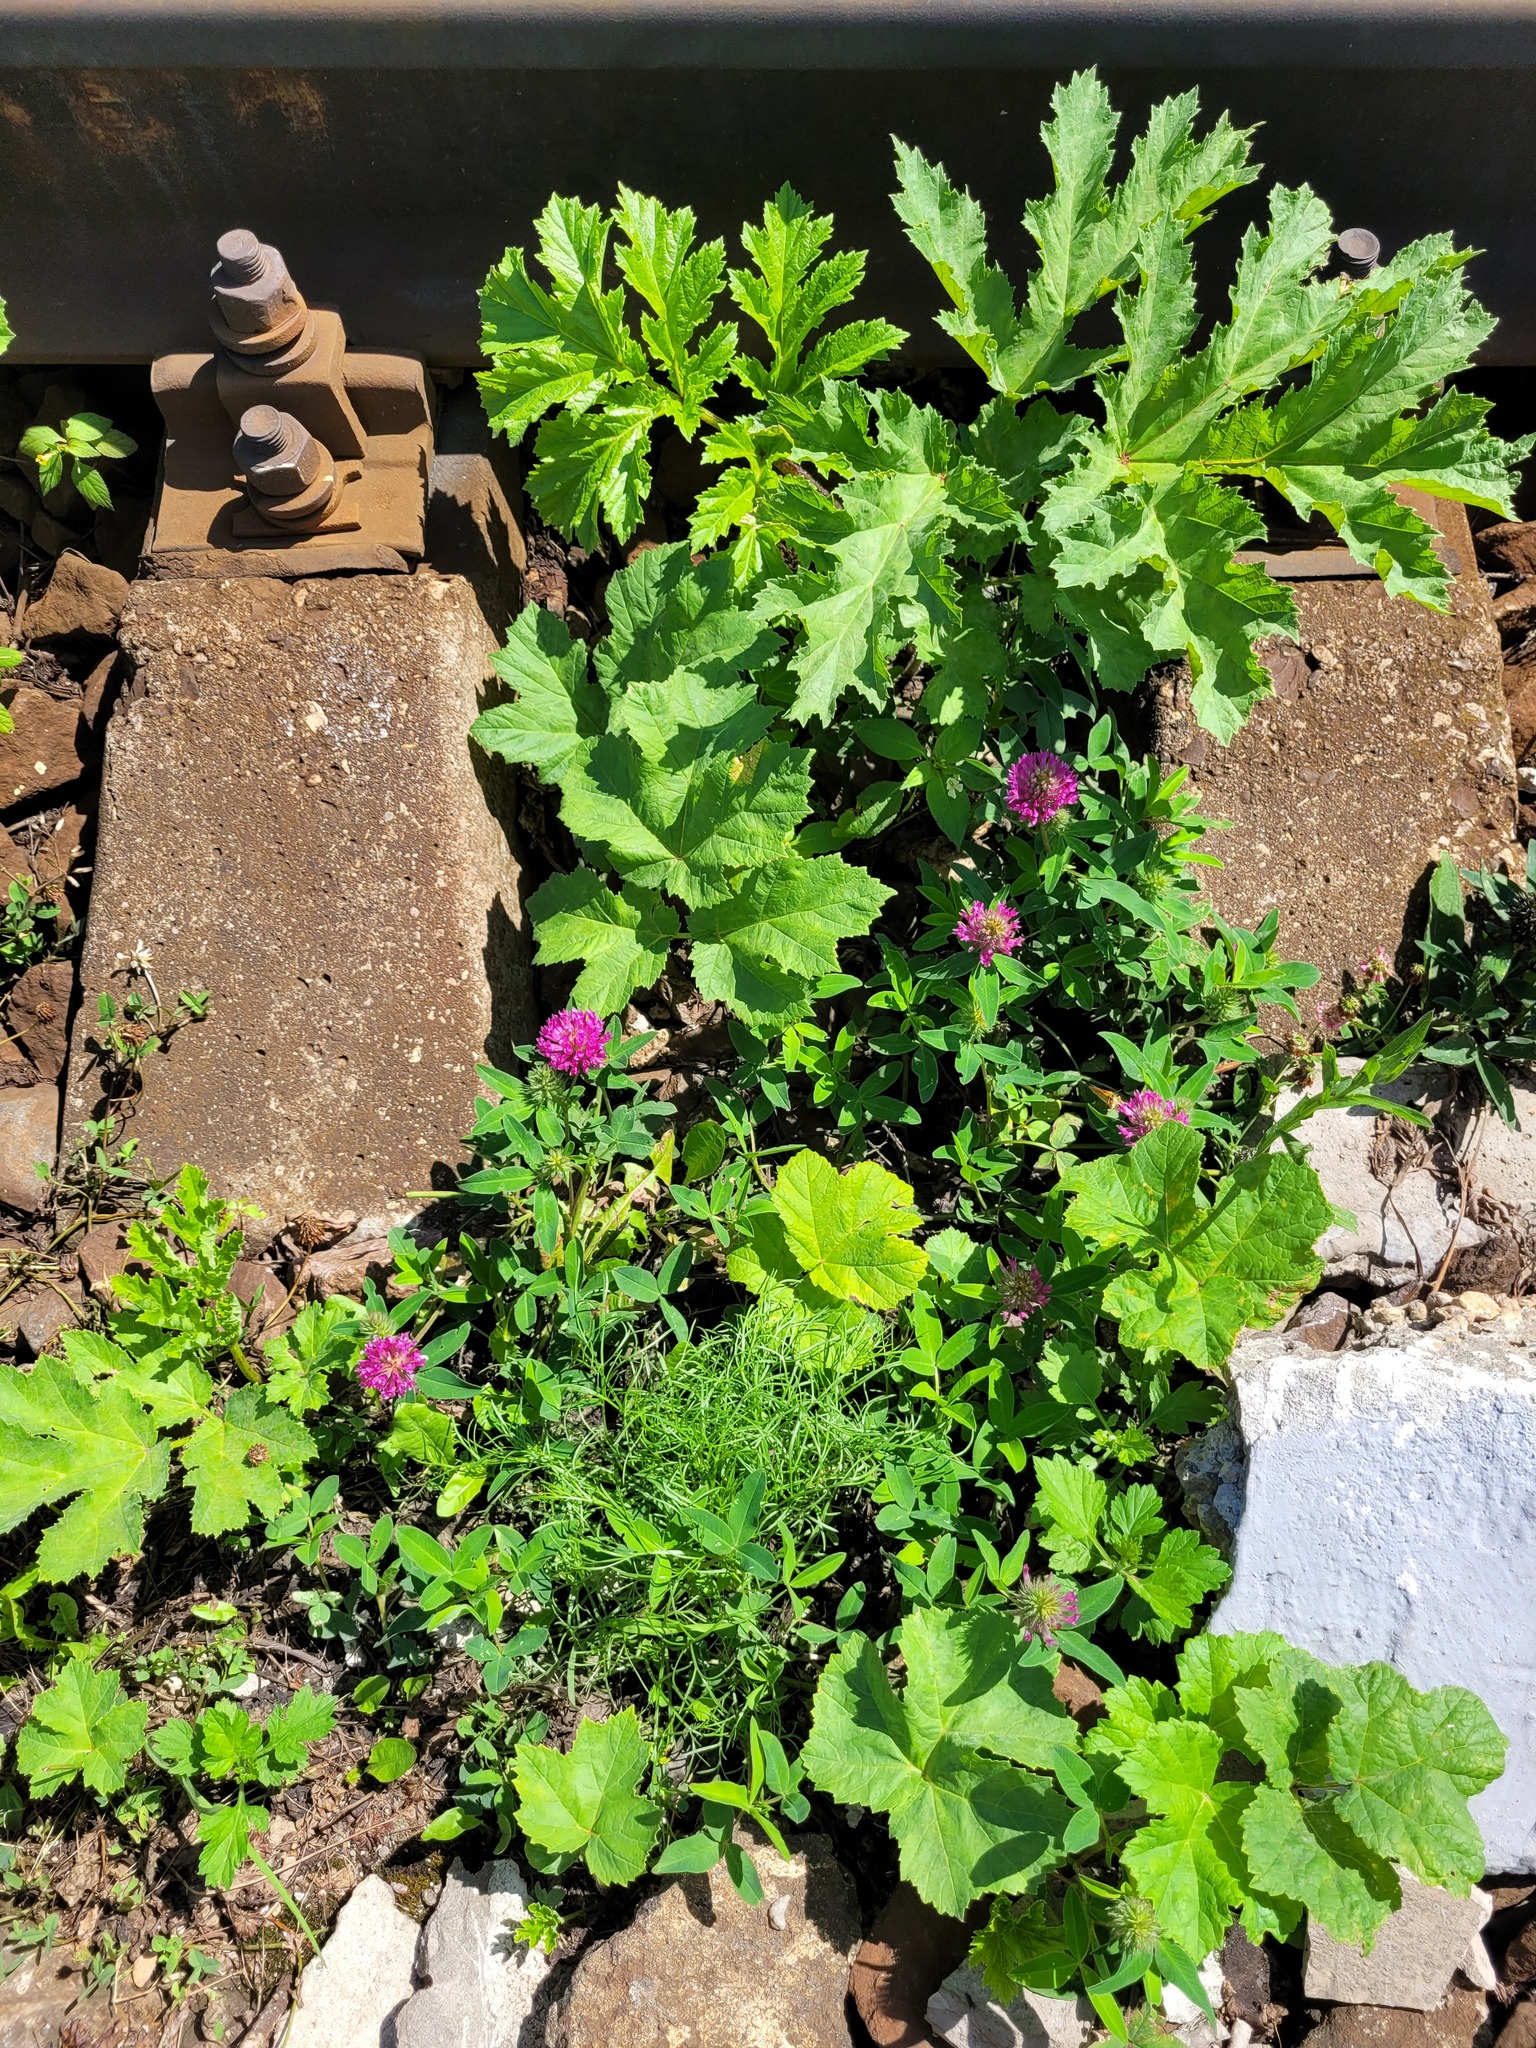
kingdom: Plantae
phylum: Tracheophyta
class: Magnoliopsida
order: Fabales
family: Fabaceae
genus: Trifolium
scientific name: Trifolium medium
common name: Zigzag clover
